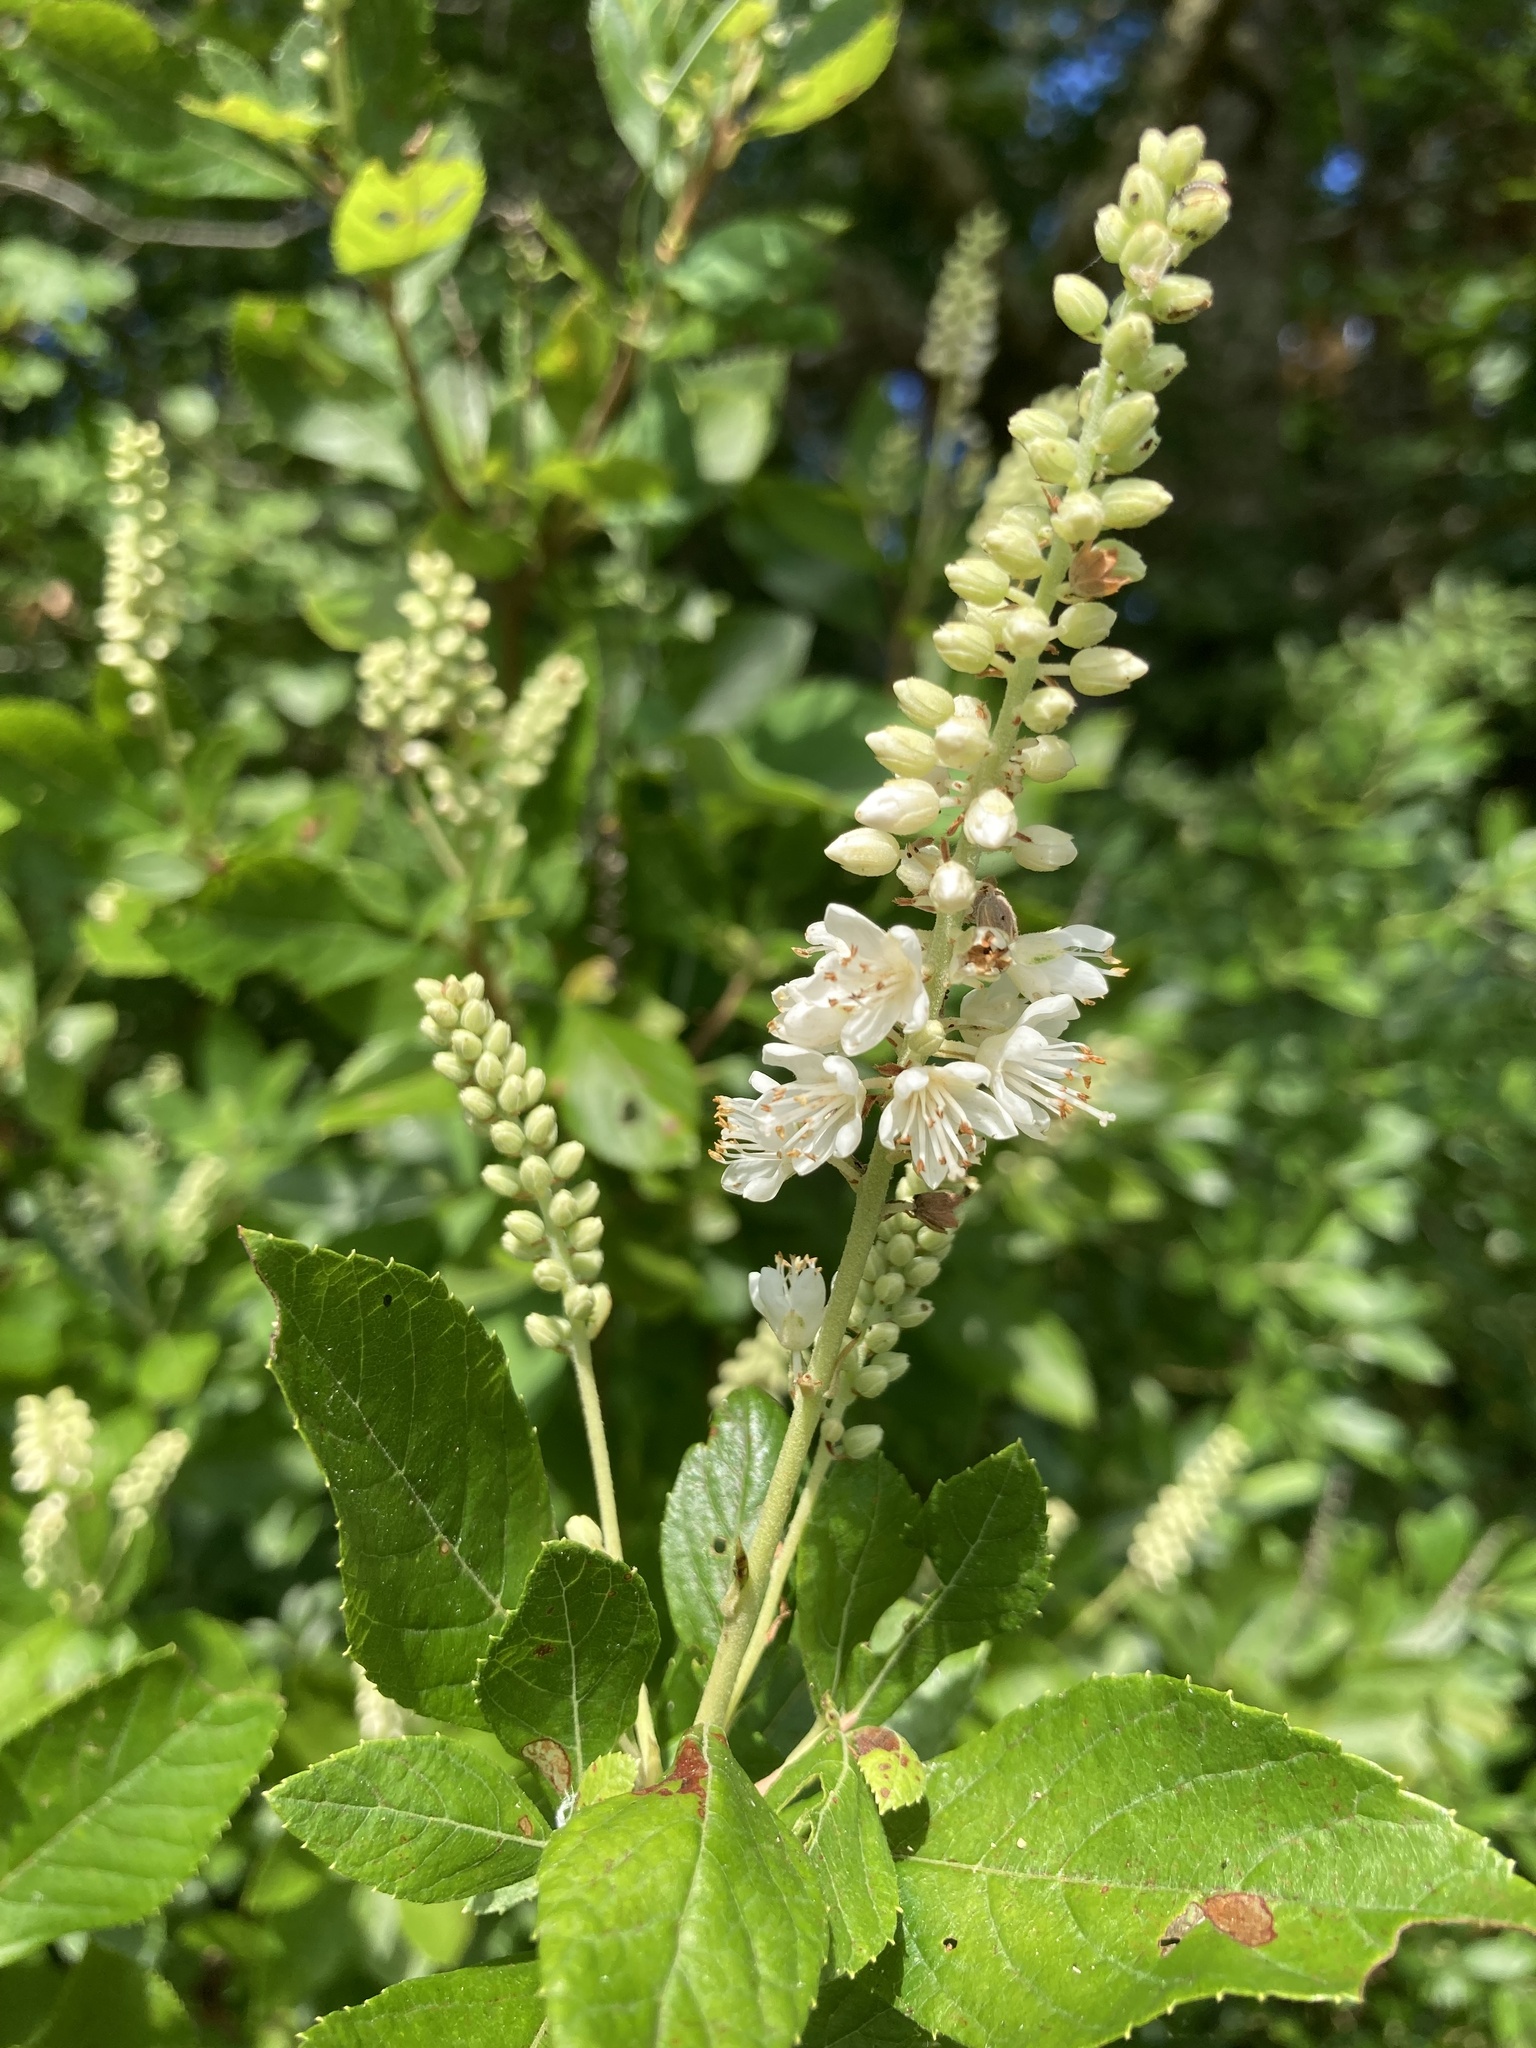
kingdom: Plantae
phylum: Tracheophyta
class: Magnoliopsida
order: Ericales
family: Clethraceae
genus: Clethra
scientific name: Clethra alnifolia
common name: Sweet pepperbush
